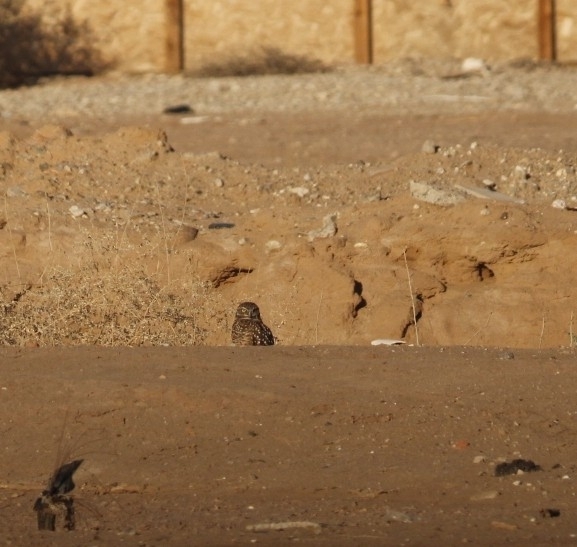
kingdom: Animalia
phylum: Chordata
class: Aves
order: Strigiformes
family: Strigidae
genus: Athene
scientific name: Athene cunicularia
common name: Burrowing owl
